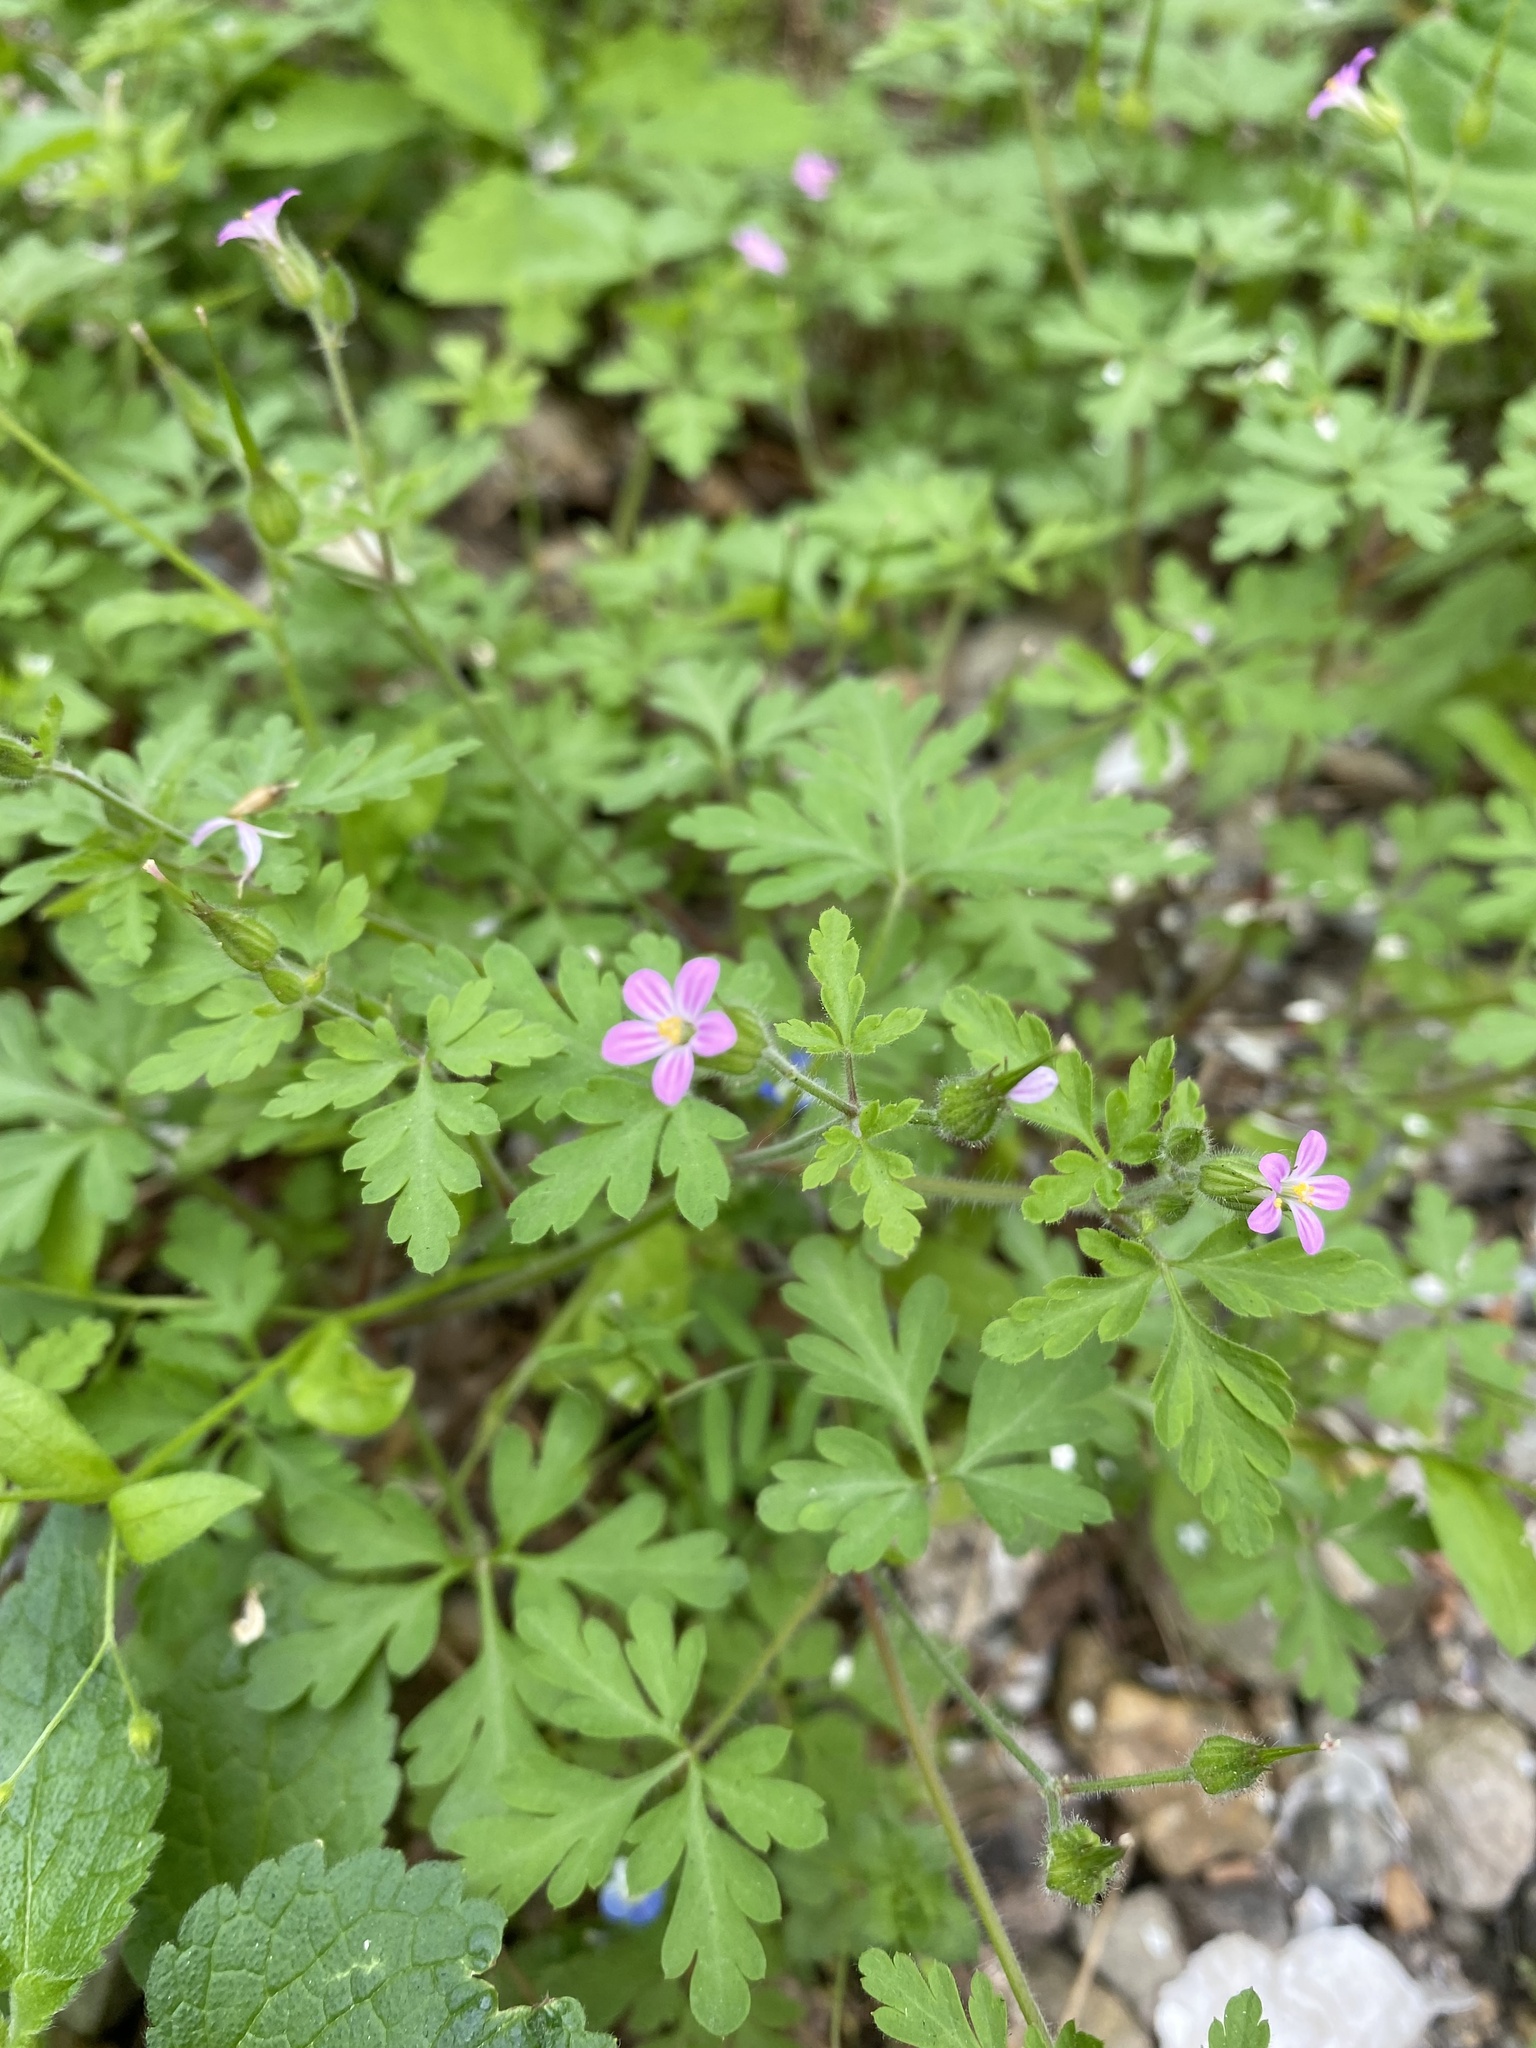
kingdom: Plantae
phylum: Tracheophyta
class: Magnoliopsida
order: Geraniales
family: Geraniaceae
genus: Geranium
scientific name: Geranium purpureum
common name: Little-robin
